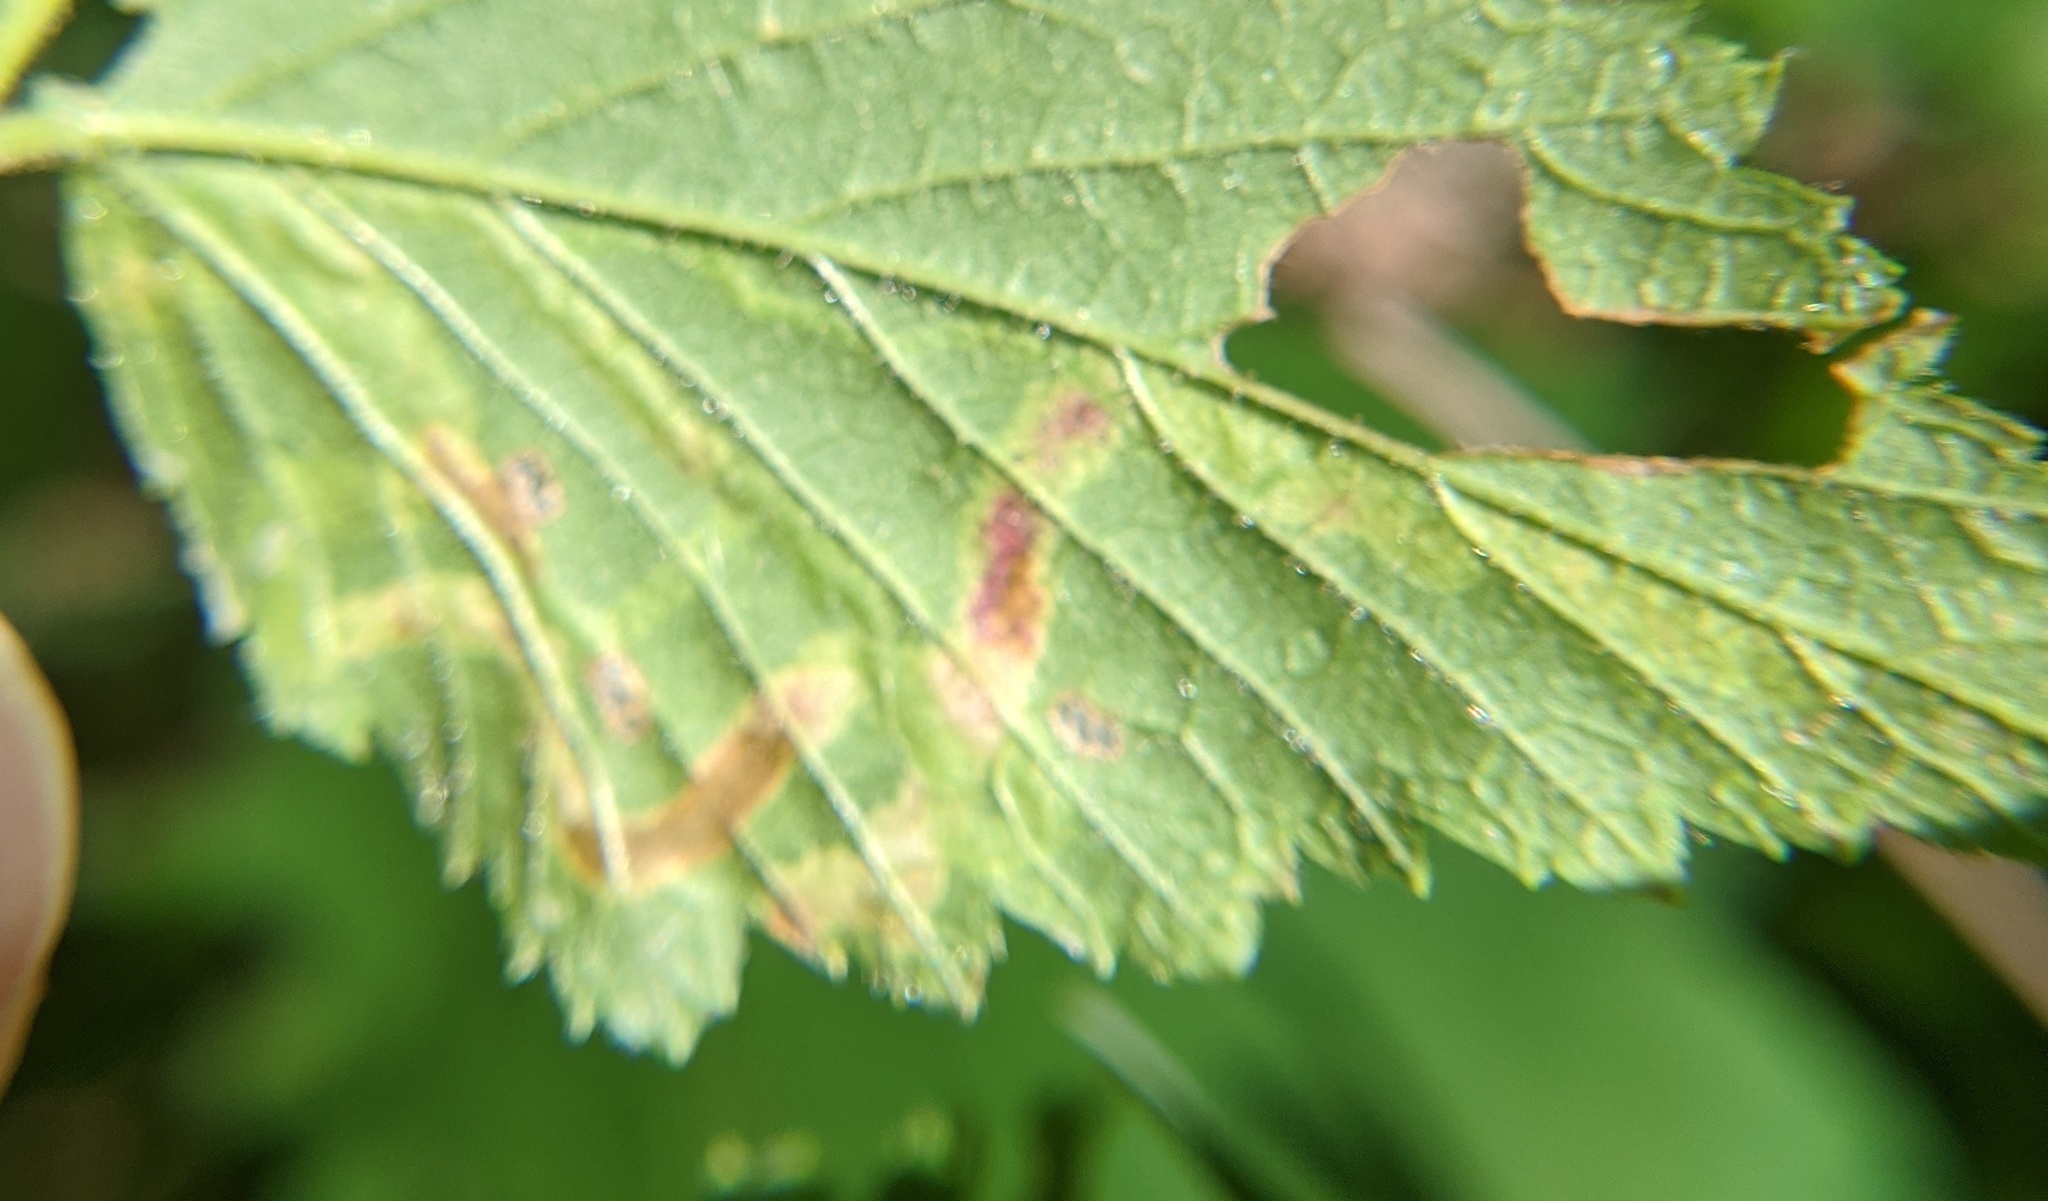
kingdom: Animalia
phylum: Arthropoda
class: Insecta
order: Diptera
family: Agromyzidae
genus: Agromyza
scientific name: Agromyza vockerothi
